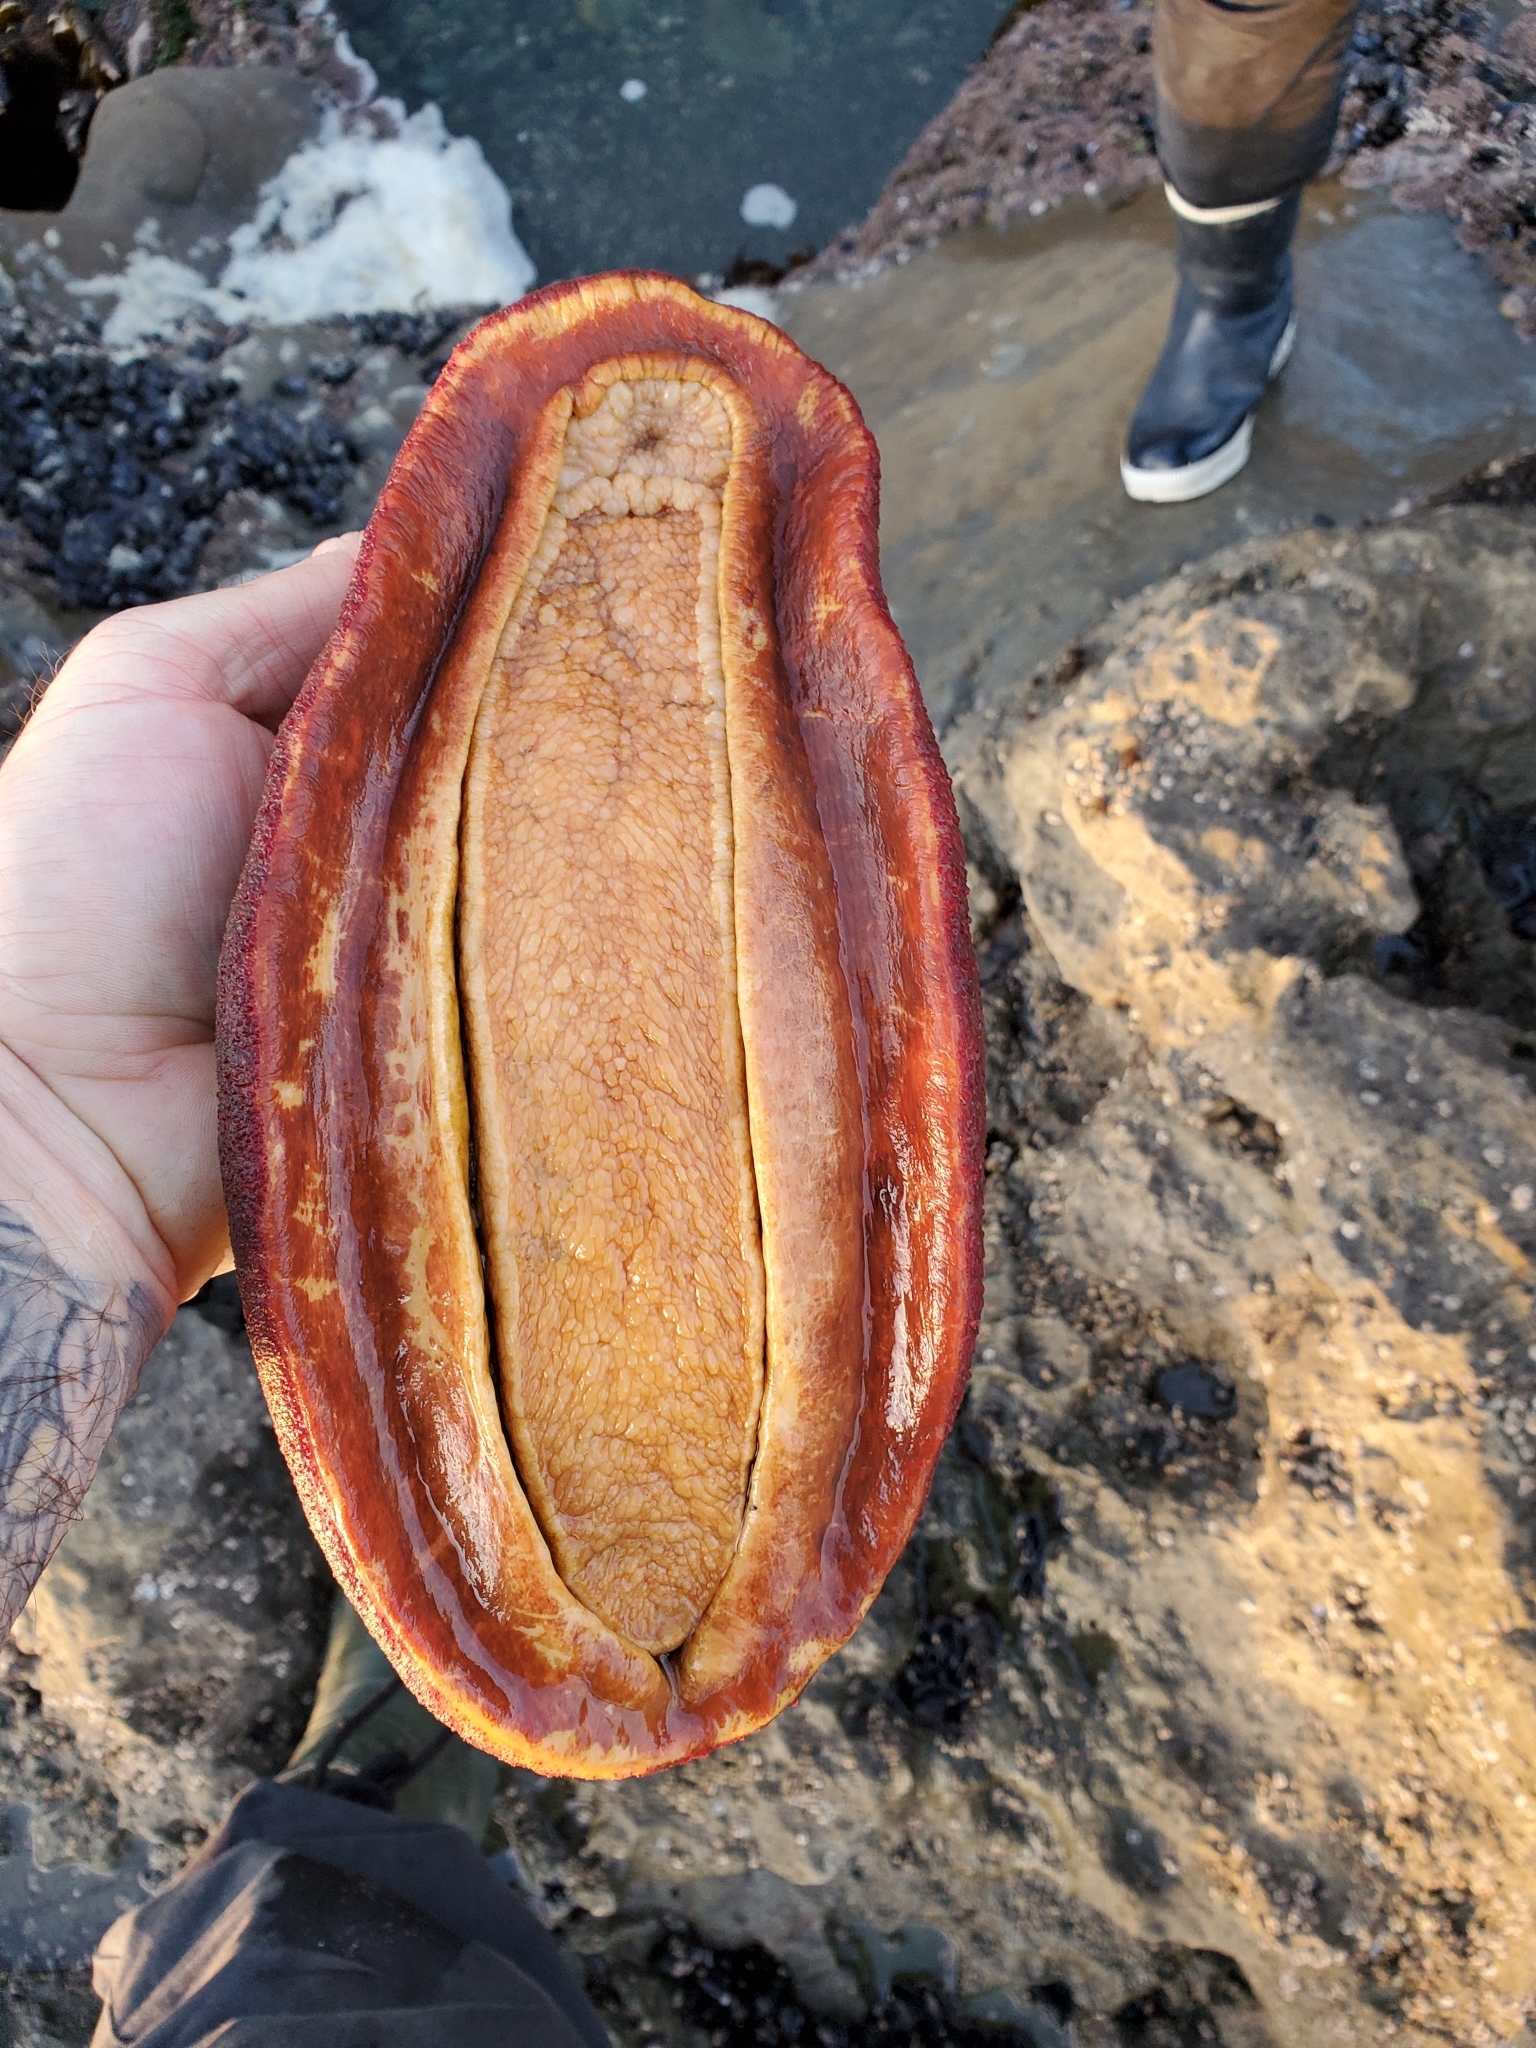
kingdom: Animalia
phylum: Mollusca
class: Polyplacophora
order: Chitonida
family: Acanthochitonidae
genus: Cryptochiton
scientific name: Cryptochiton stelleri
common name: Giant pacific chiton
